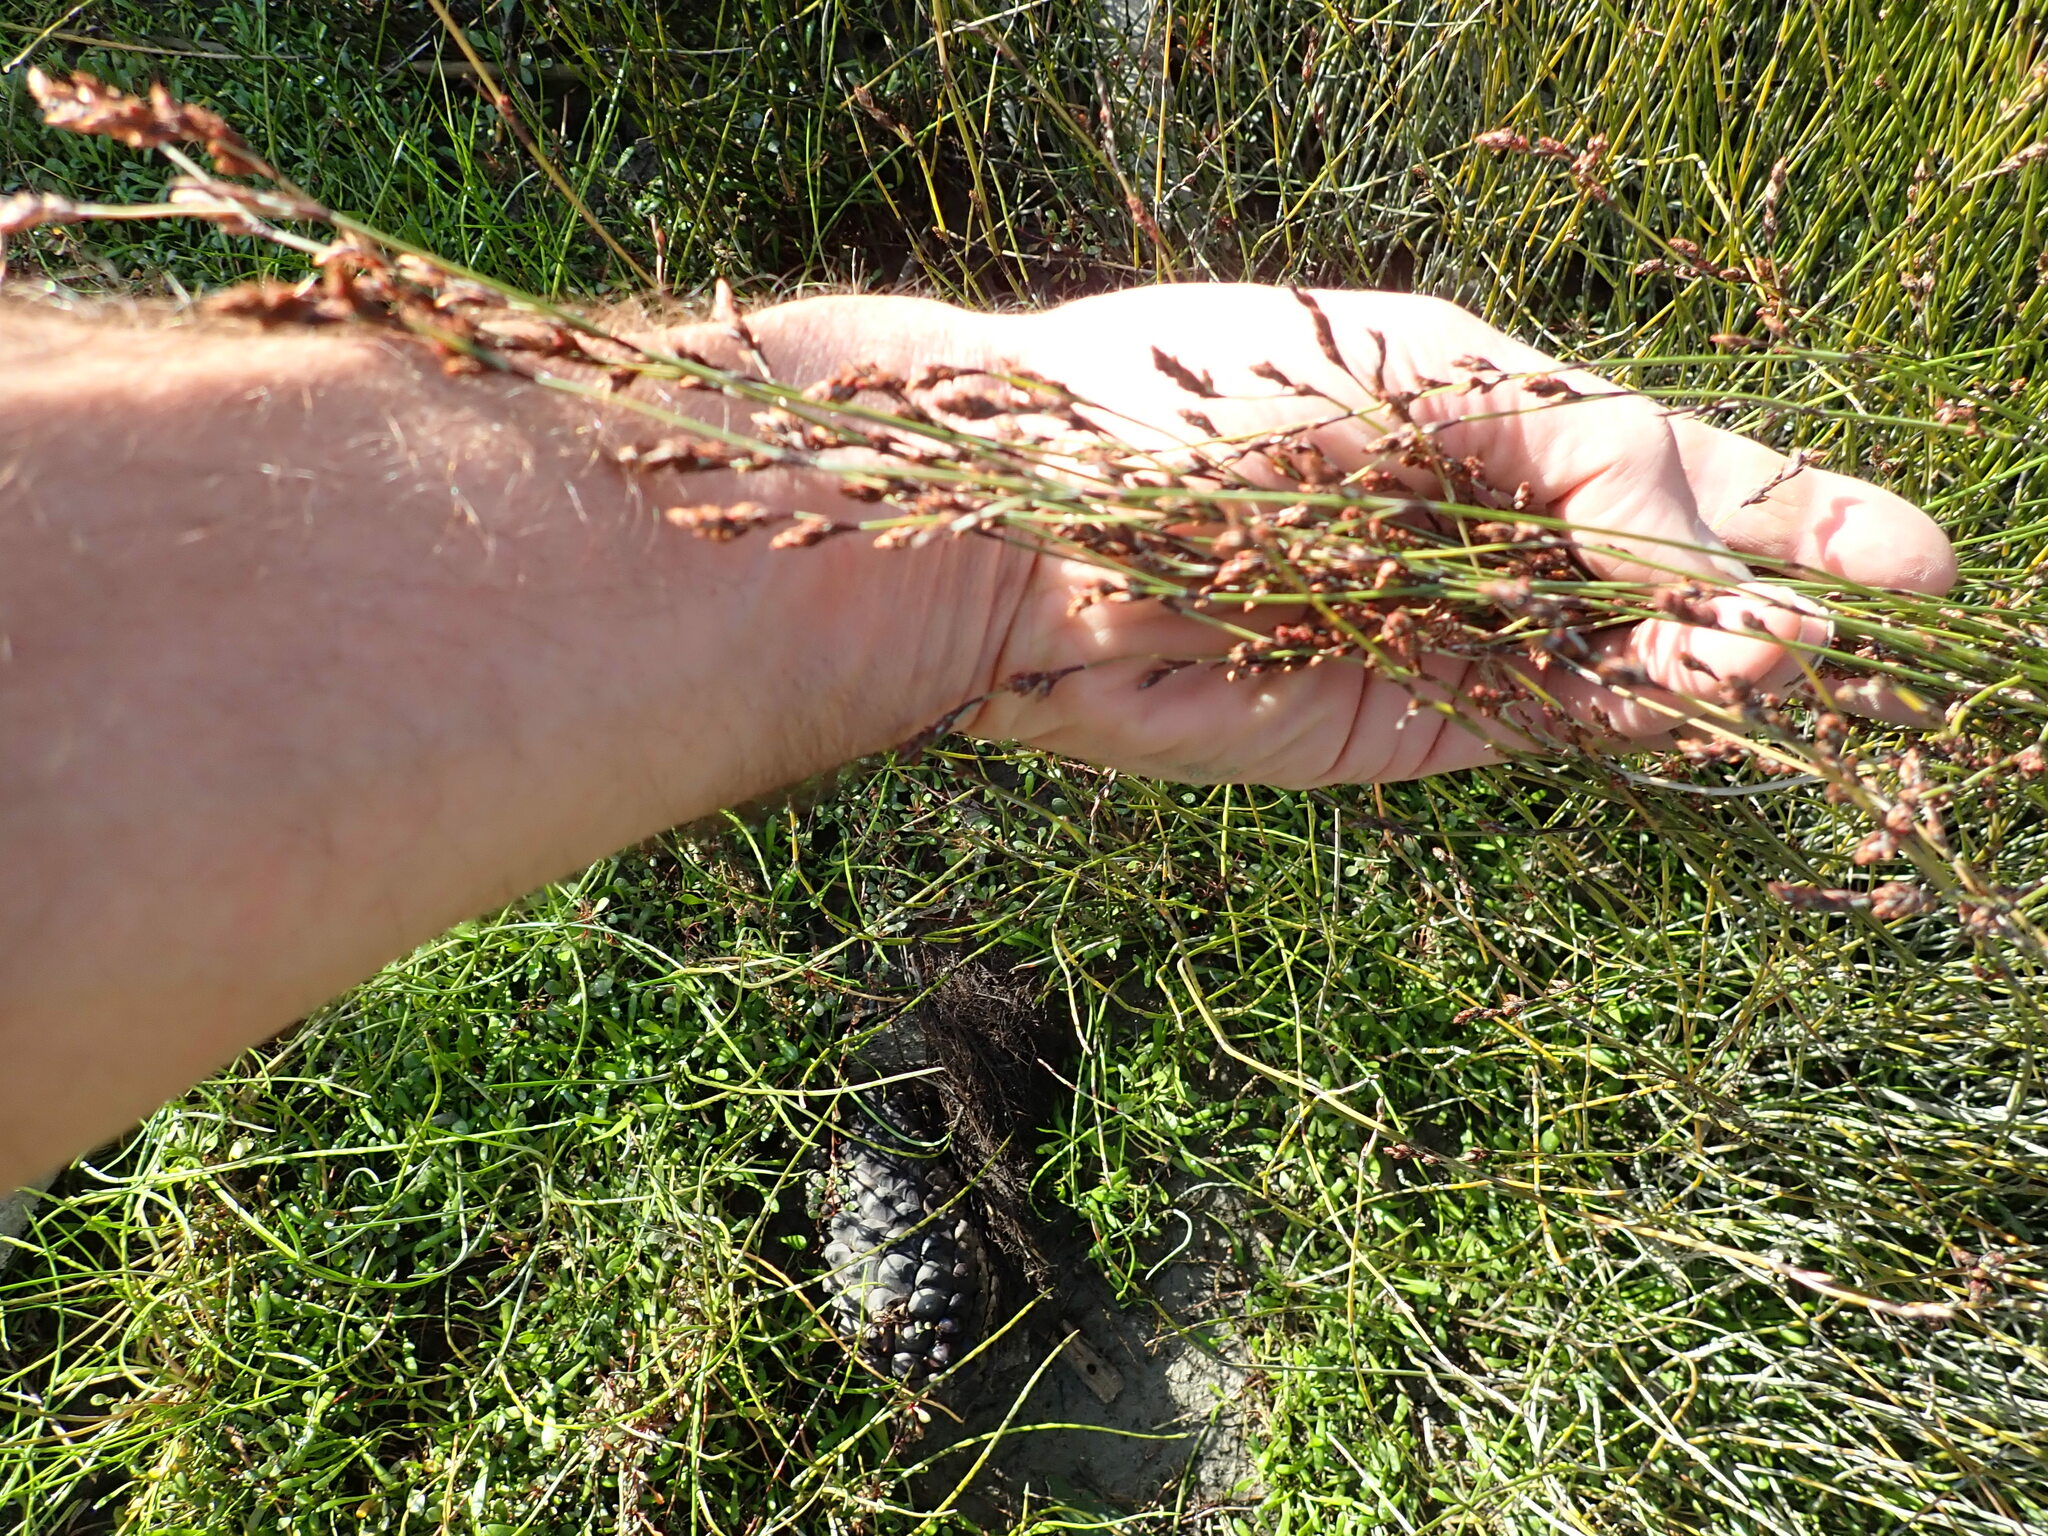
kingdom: Plantae
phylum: Tracheophyta
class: Liliopsida
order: Poales
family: Restionaceae
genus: Apodasmia
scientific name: Apodasmia similis
